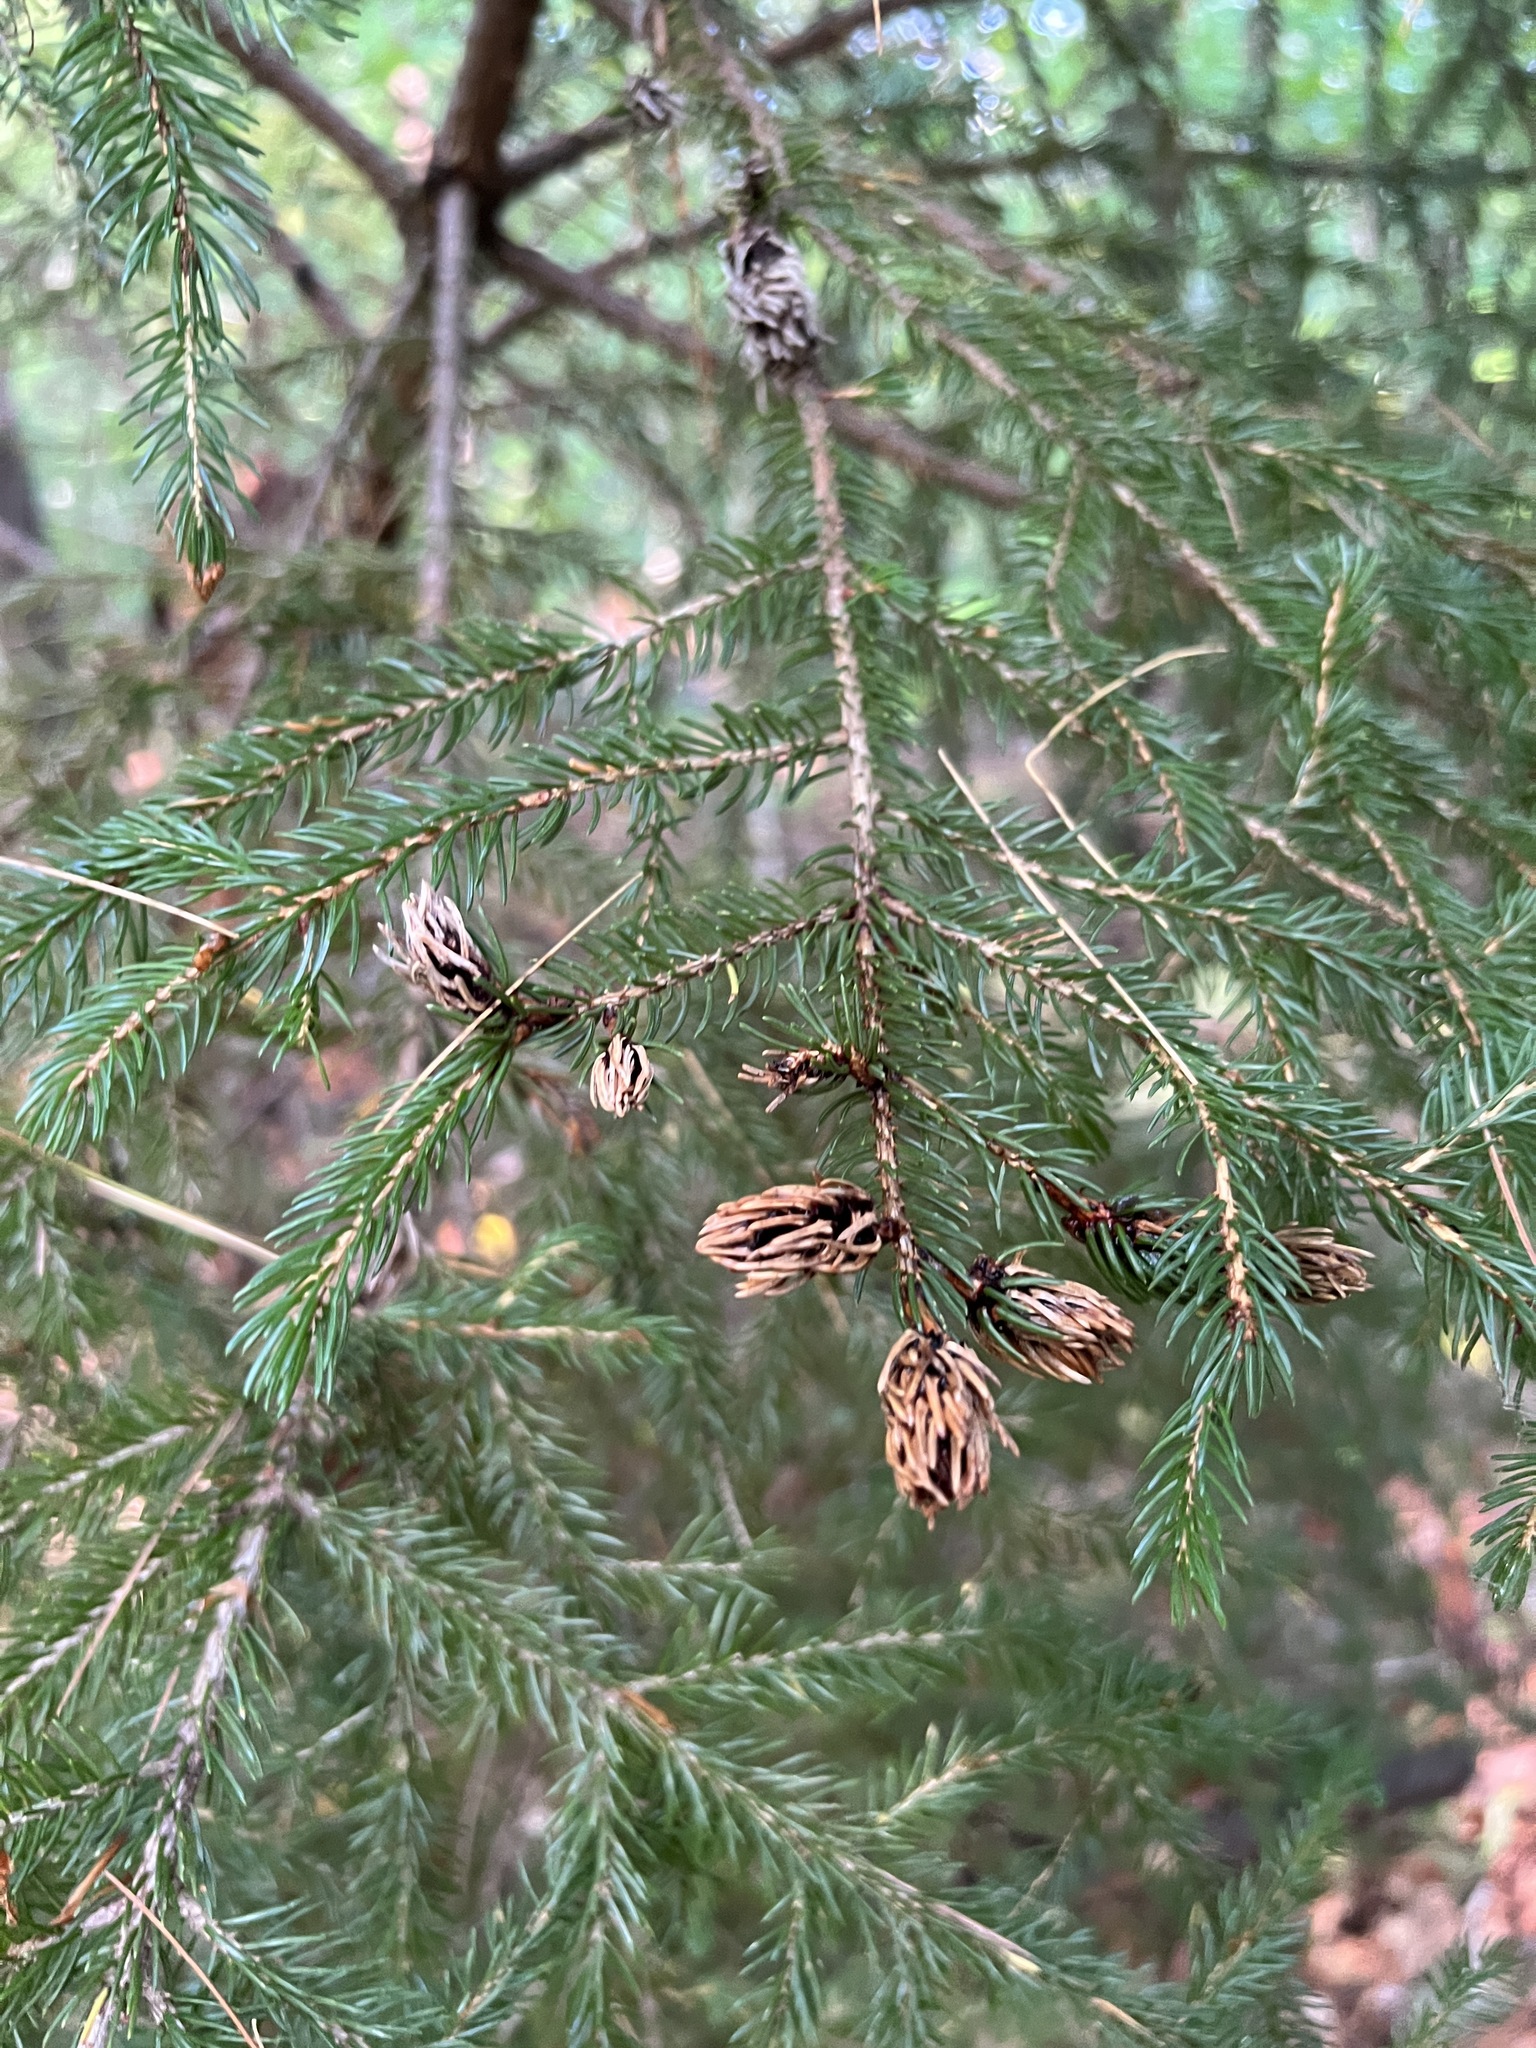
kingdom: Plantae
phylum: Tracheophyta
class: Pinopsida
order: Pinales
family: Pinaceae
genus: Picea
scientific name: Picea rubens
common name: Red spruce
